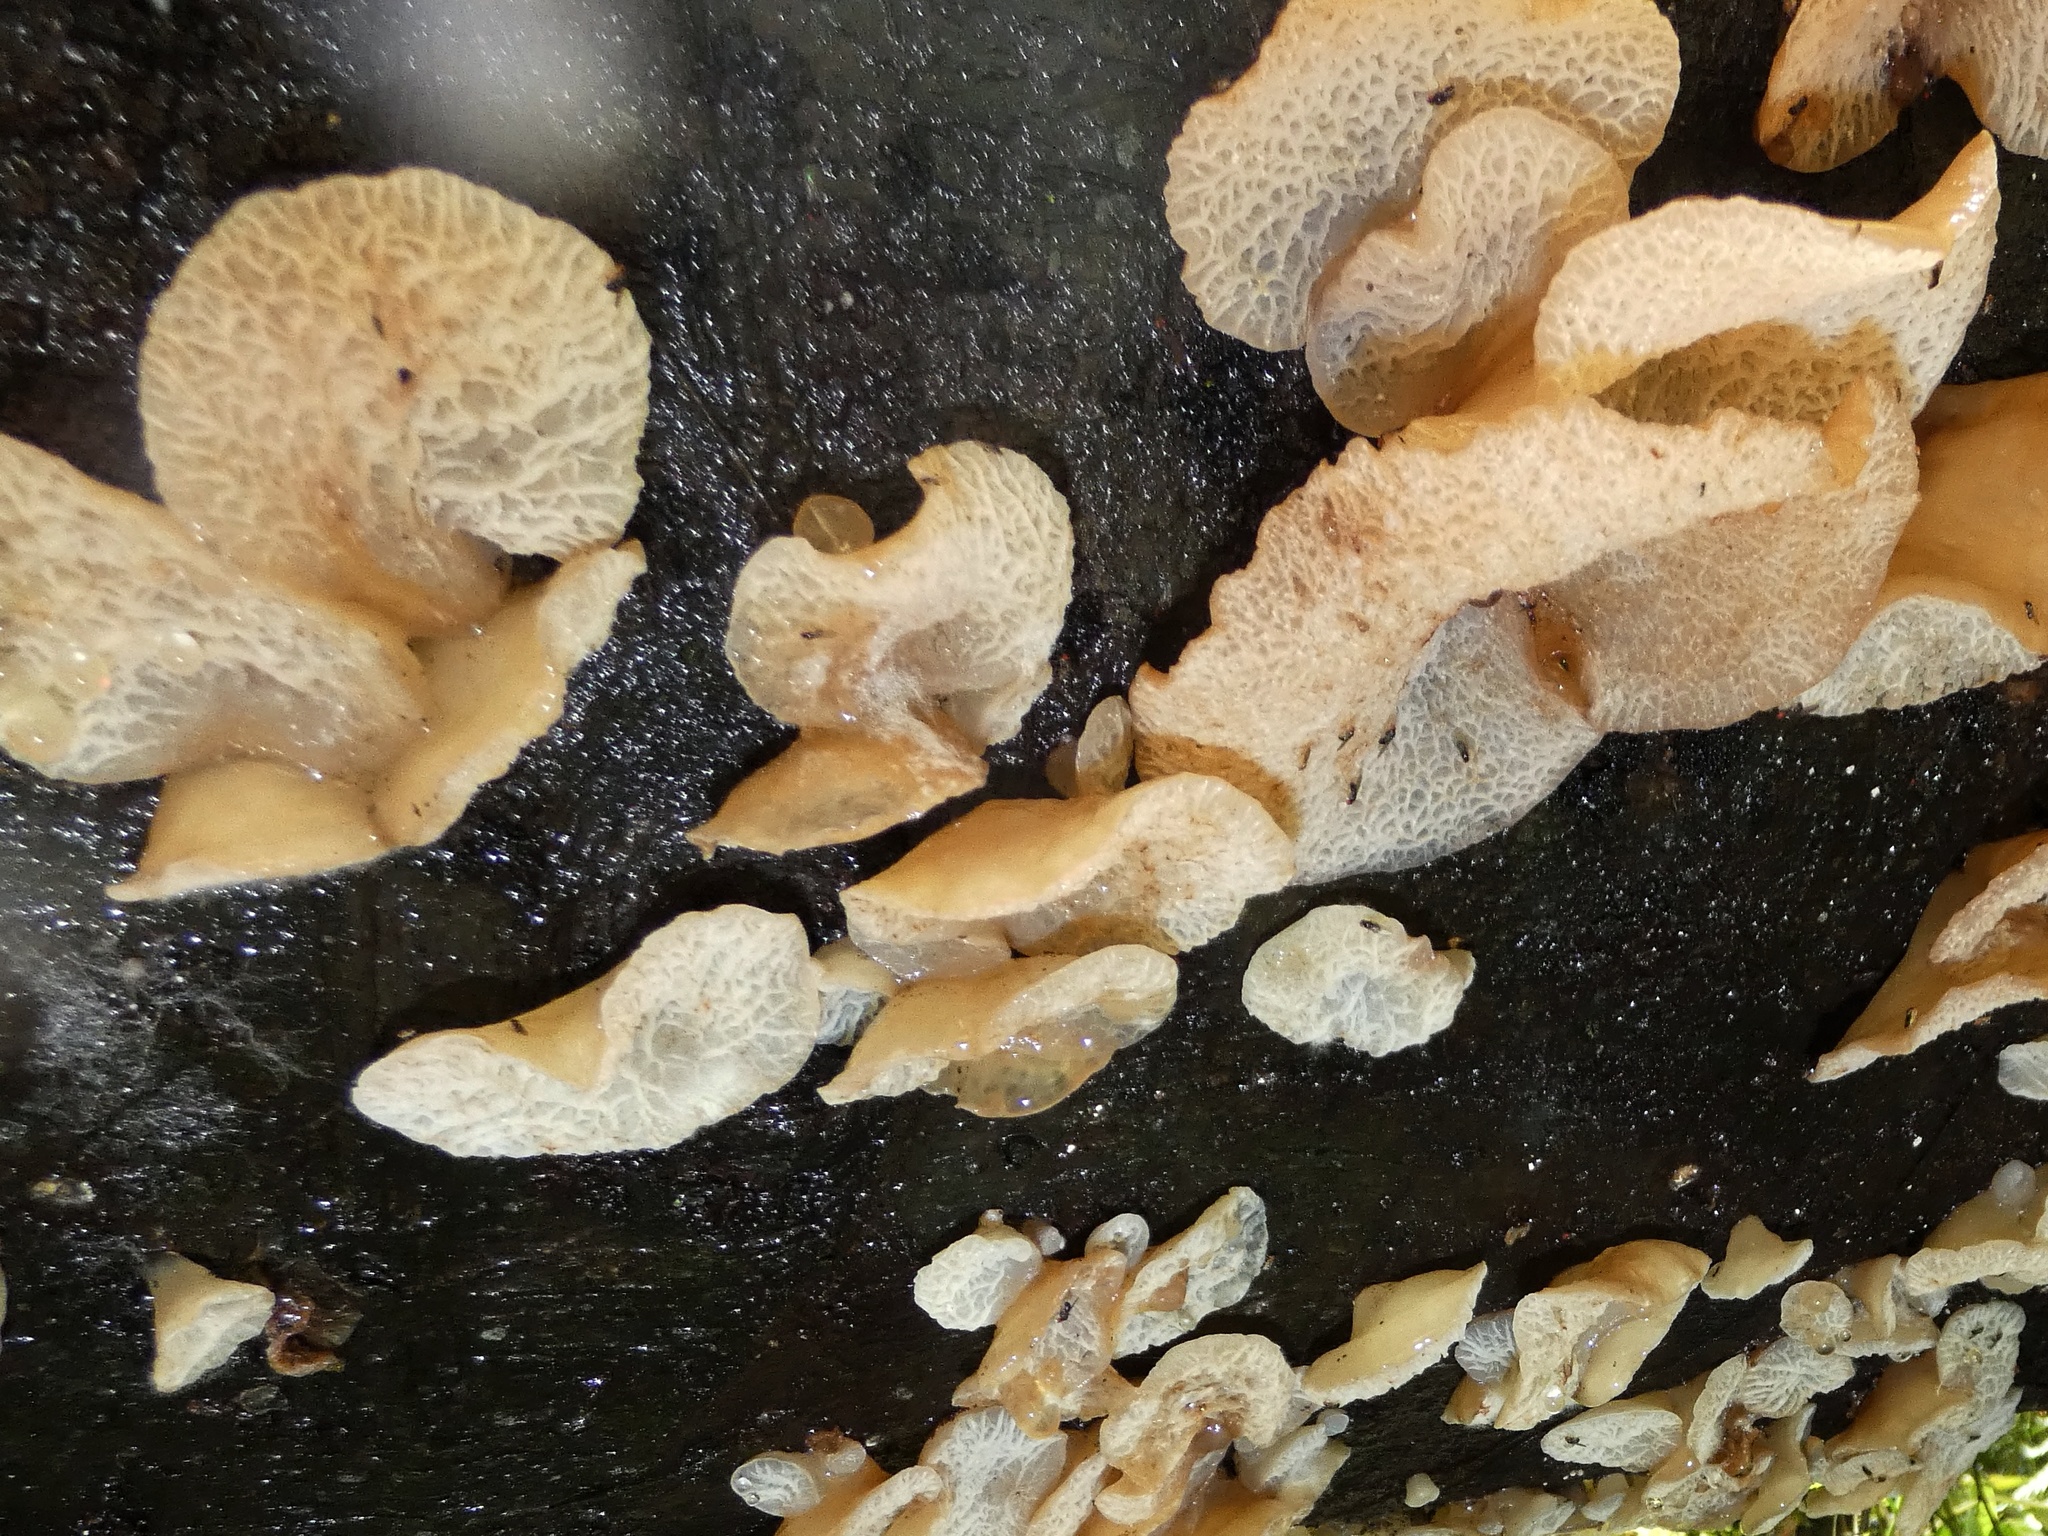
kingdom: Fungi
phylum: Basidiomycota
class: Agaricomycetes
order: Auriculariales
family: Auriculariaceae
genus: Auricularia
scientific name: Auricularia delicata
